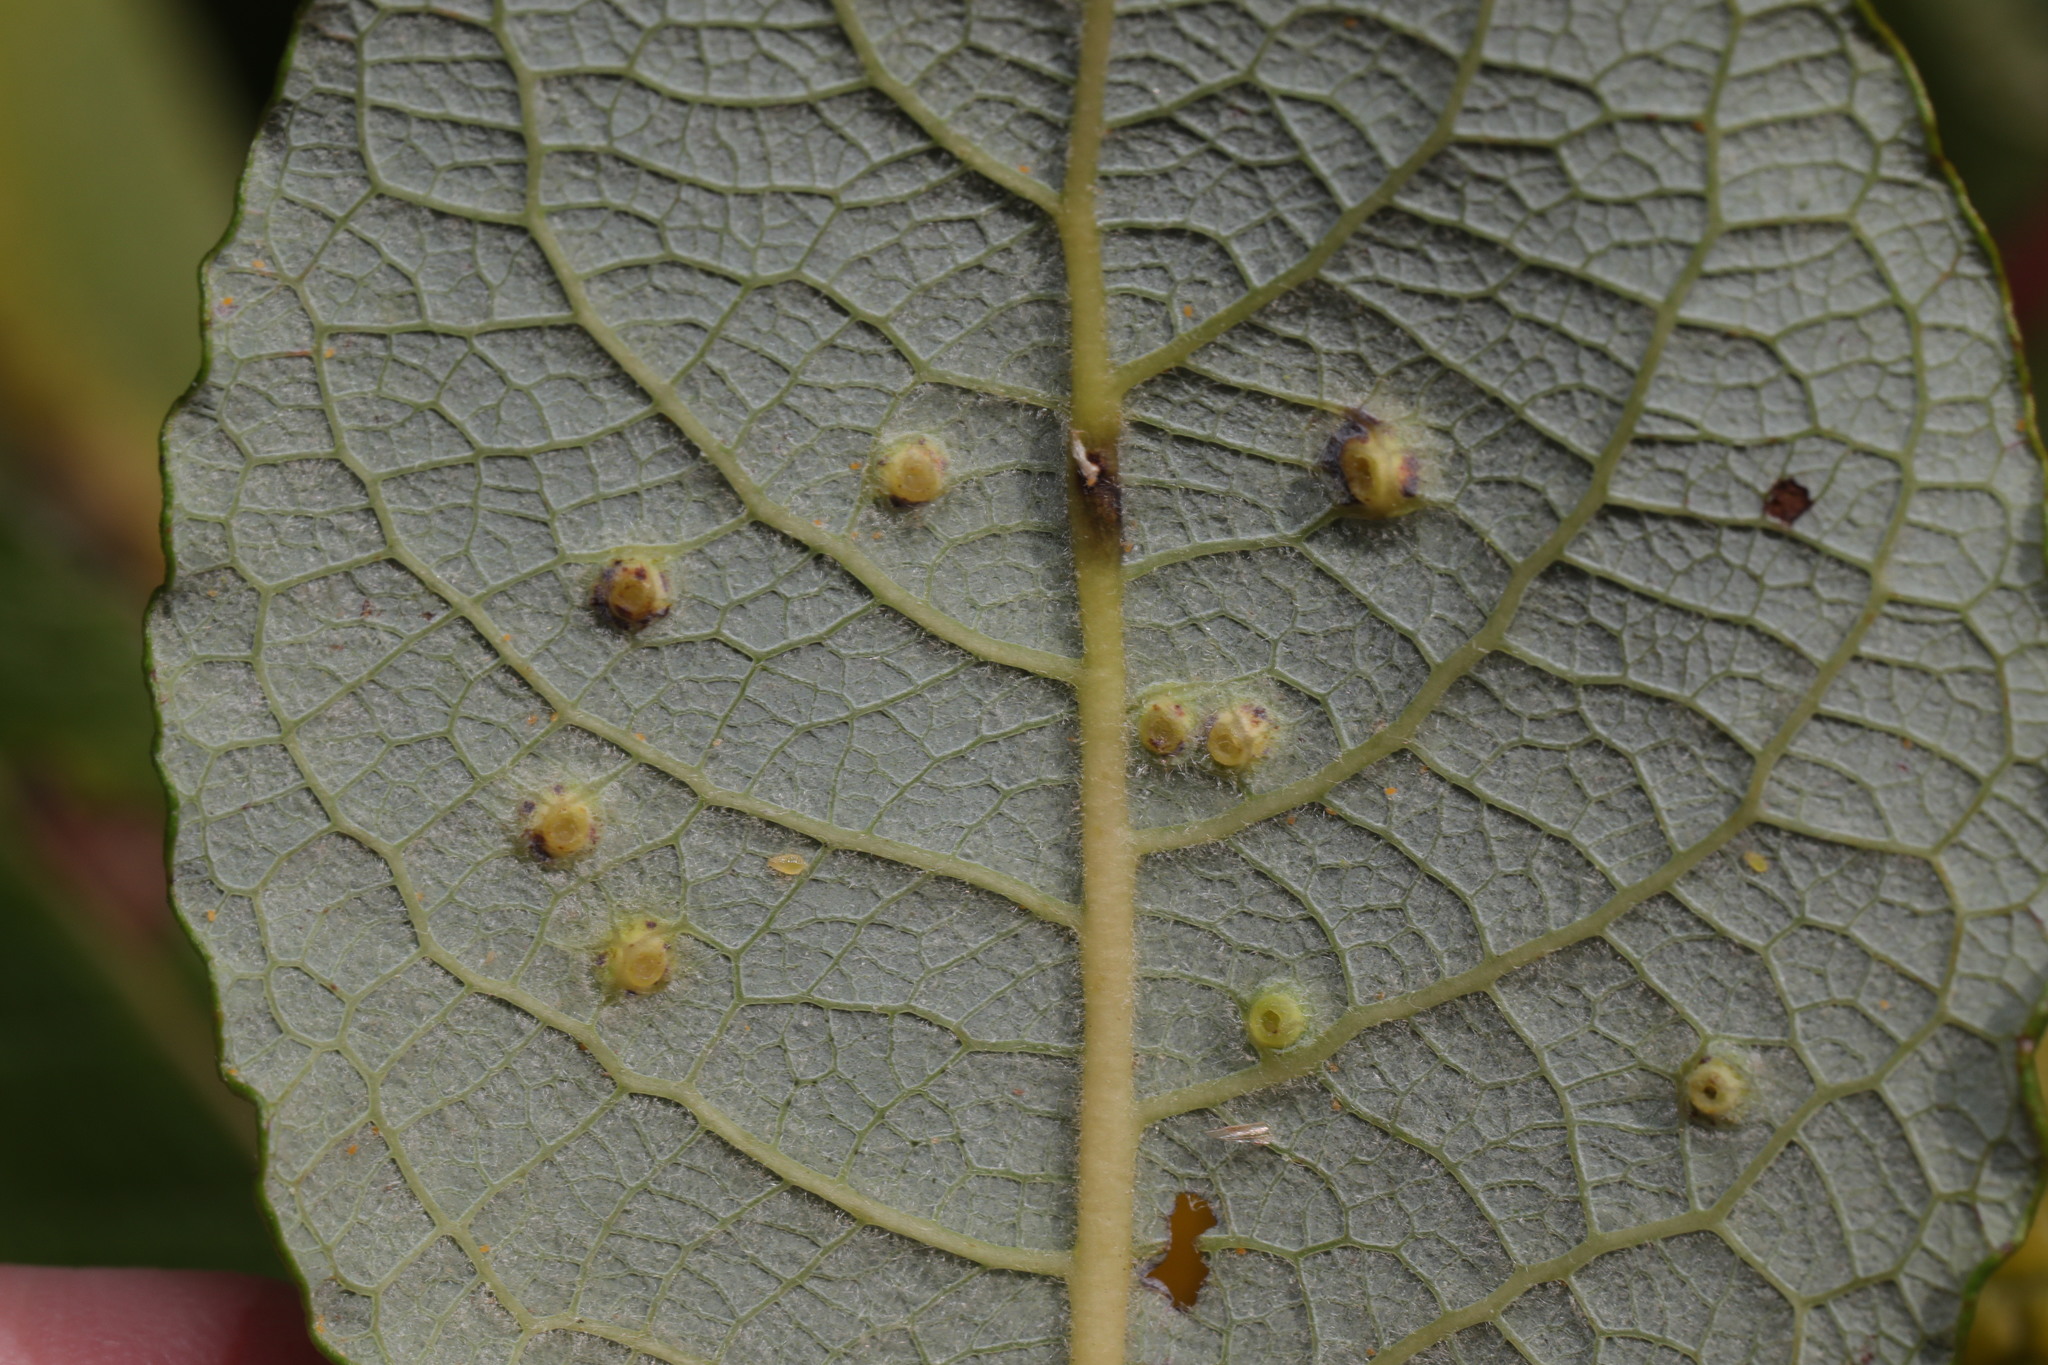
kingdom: Animalia
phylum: Arthropoda
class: Insecta
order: Diptera
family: Cecidomyiidae
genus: Iteomyia
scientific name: Iteomyia capreae
